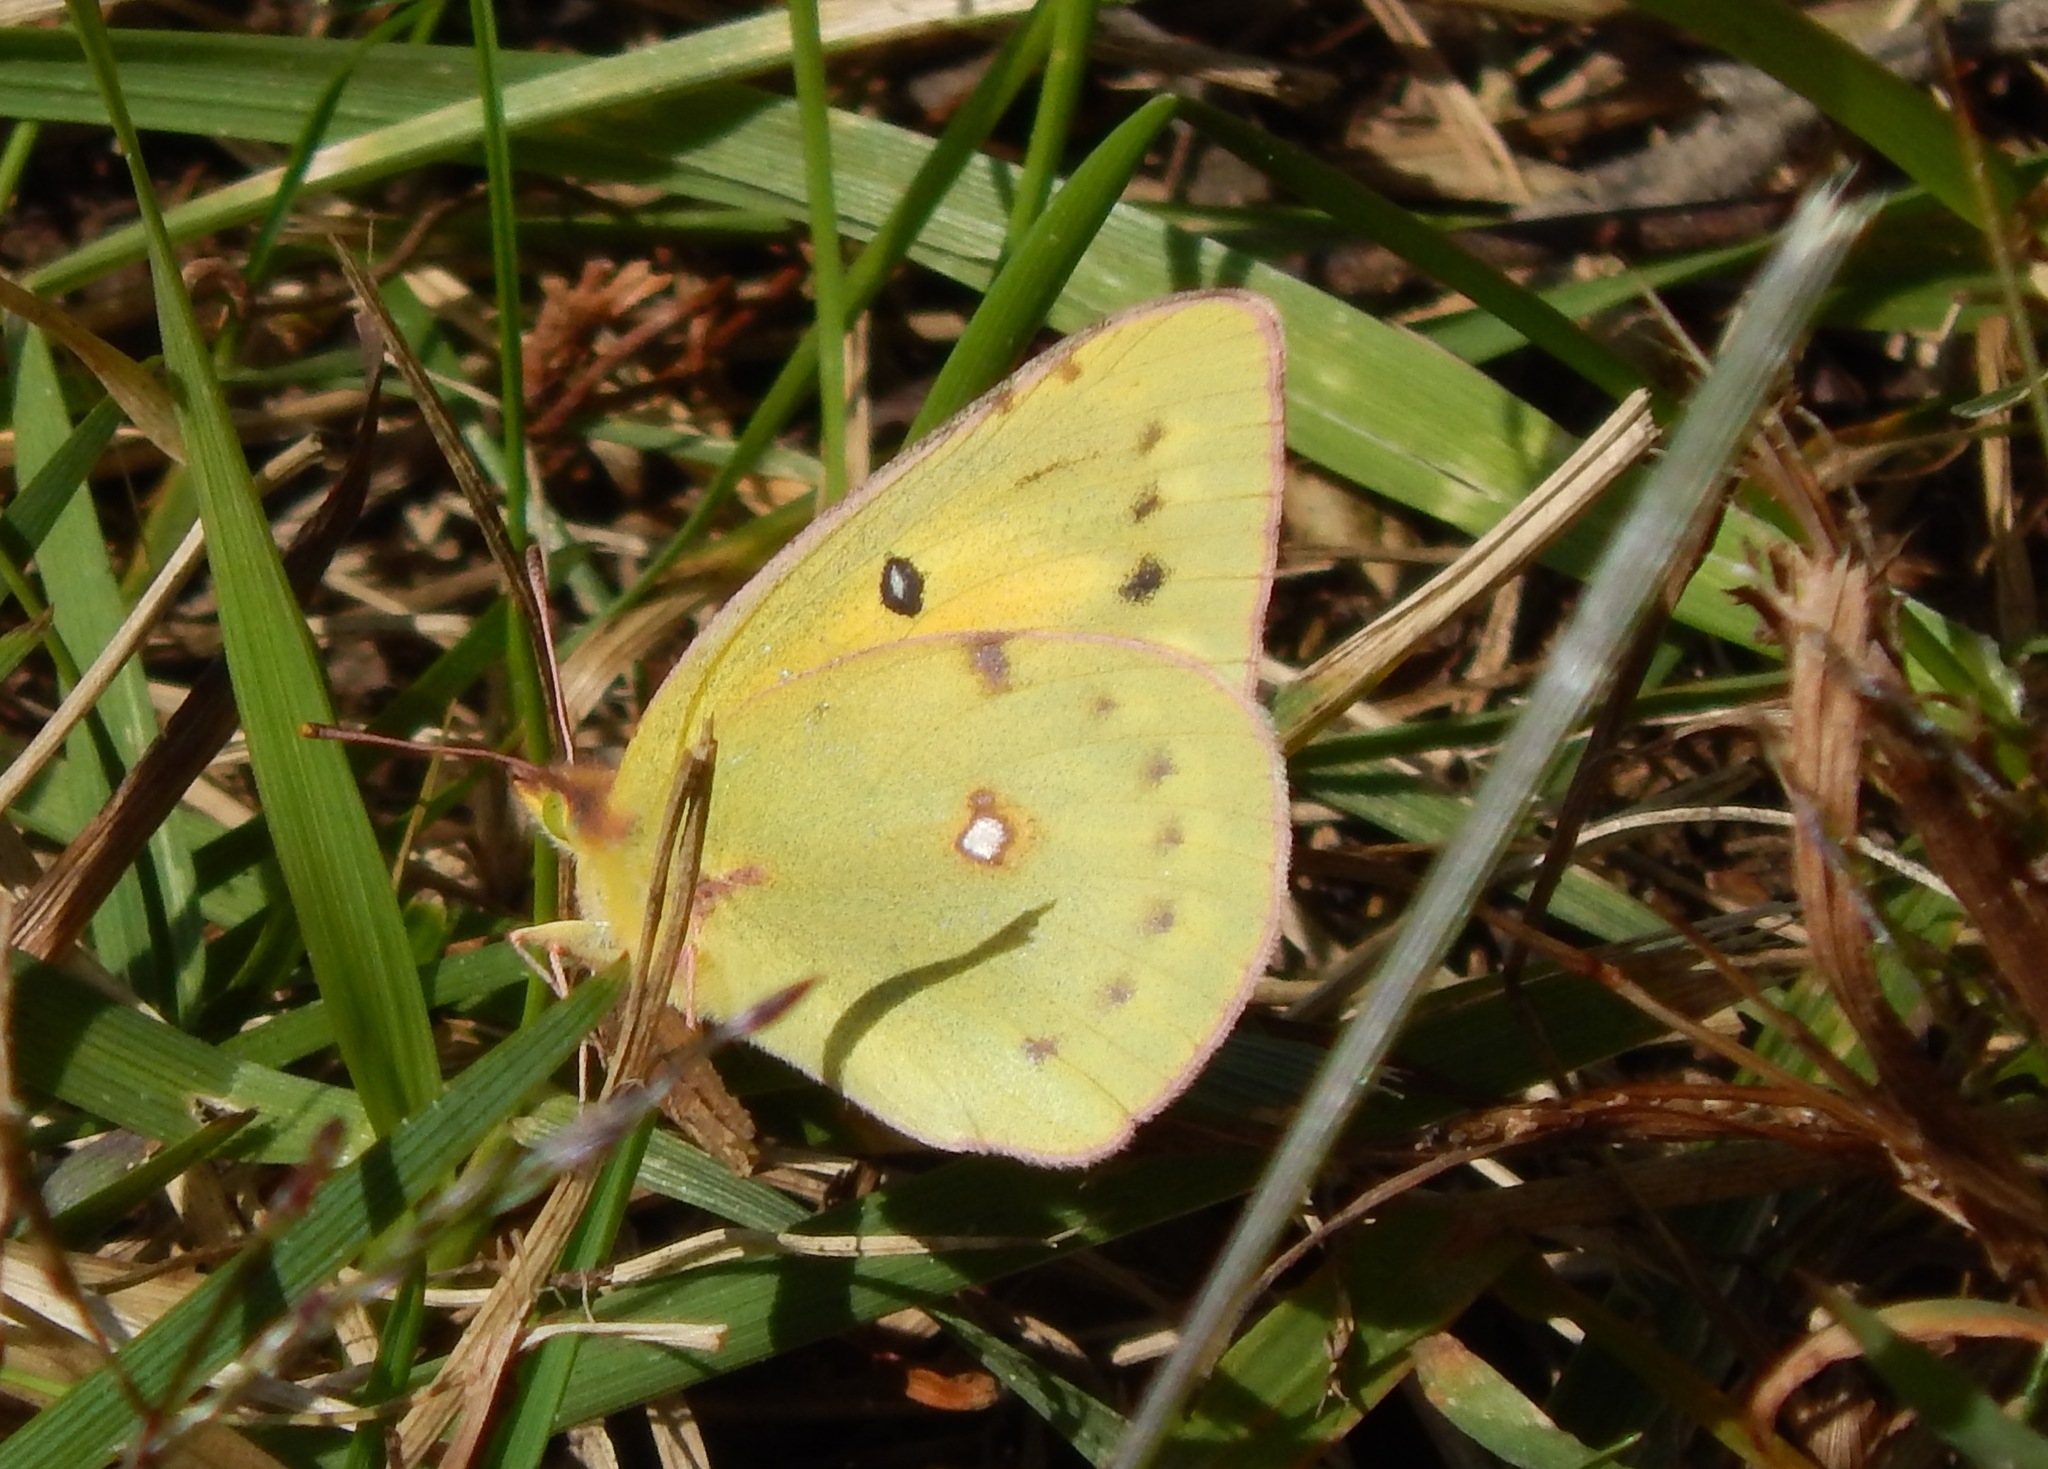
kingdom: Animalia
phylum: Arthropoda
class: Insecta
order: Lepidoptera
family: Pieridae
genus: Colias
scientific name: Colias eurytheme
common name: Alfalfa butterfly
